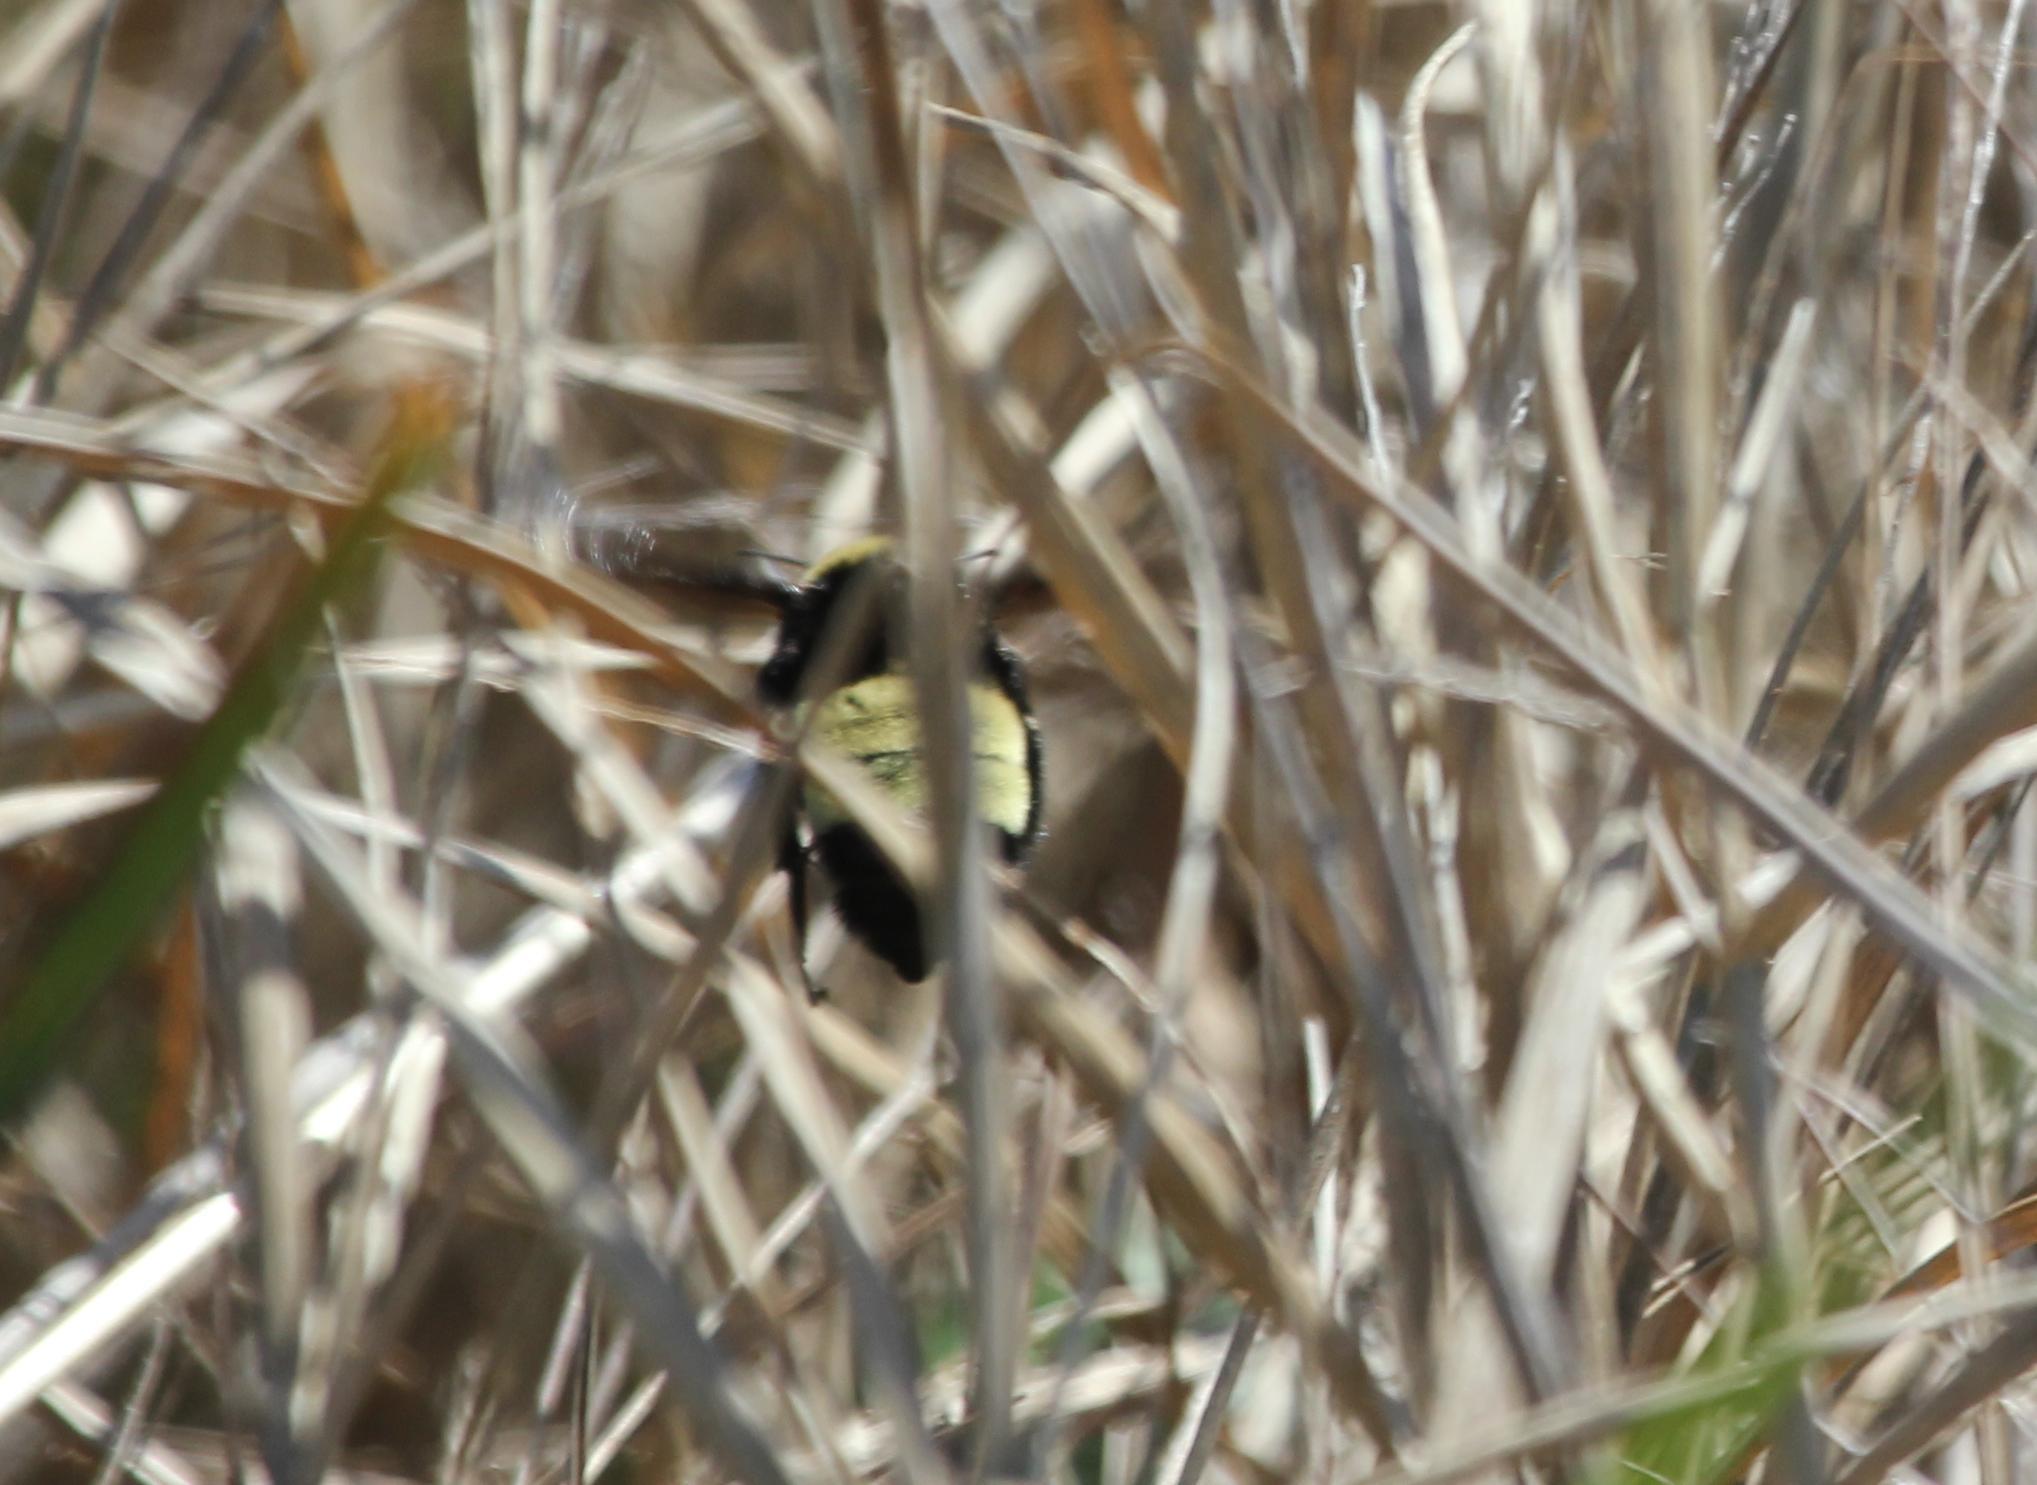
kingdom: Animalia
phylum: Arthropoda
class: Insecta
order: Hymenoptera
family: Apidae
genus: Bombus
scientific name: Bombus pensylvanicus
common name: Bumble bee
